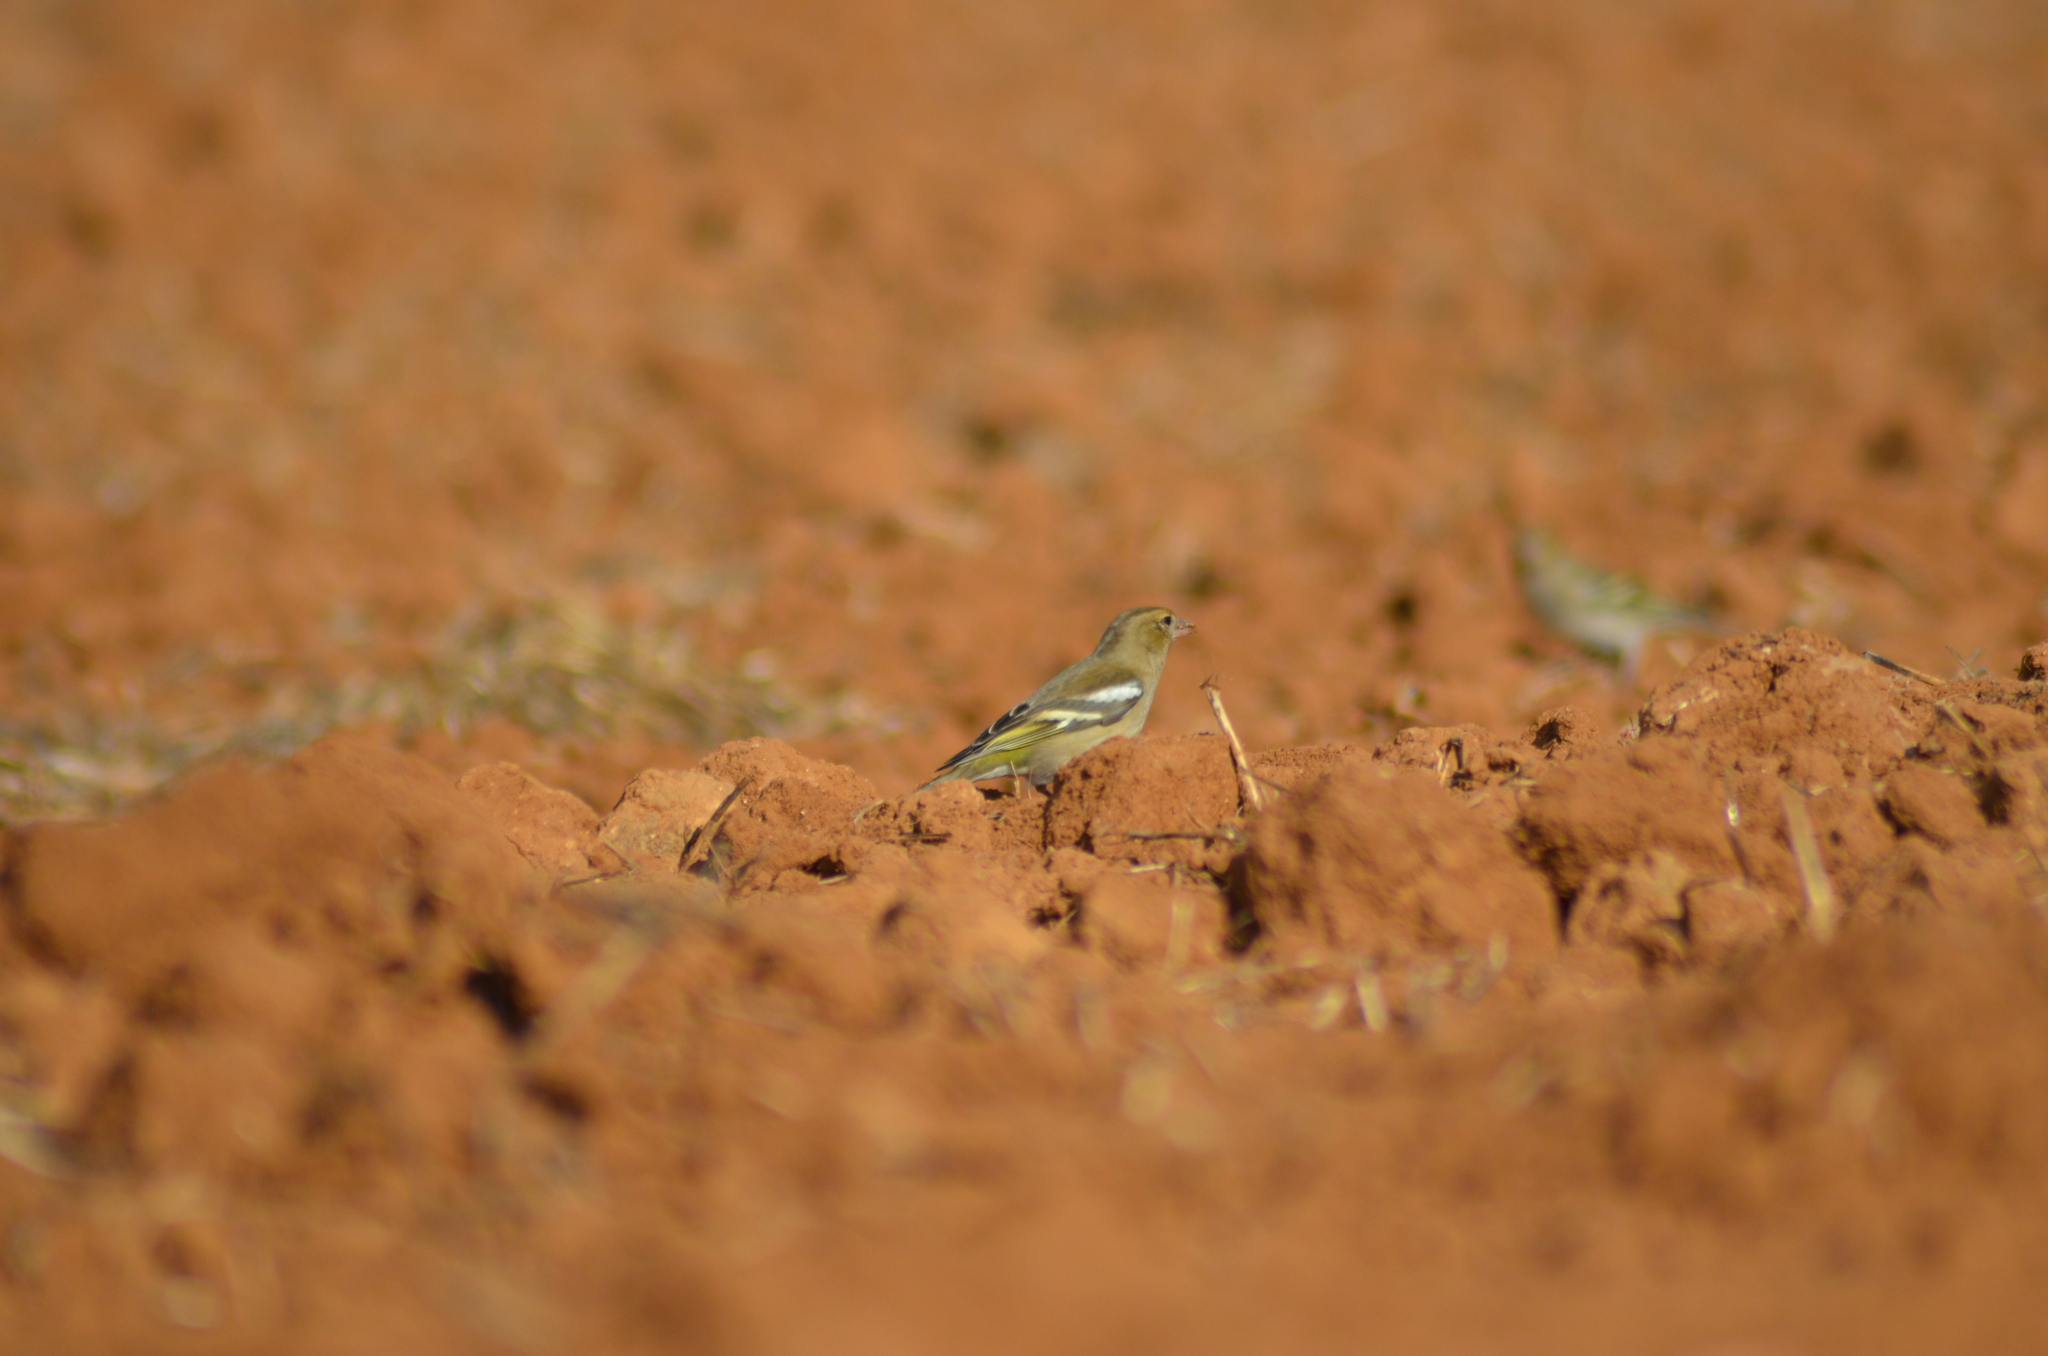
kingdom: Animalia
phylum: Chordata
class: Aves
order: Passeriformes
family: Fringillidae
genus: Fringilla
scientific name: Fringilla coelebs
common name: Common chaffinch
